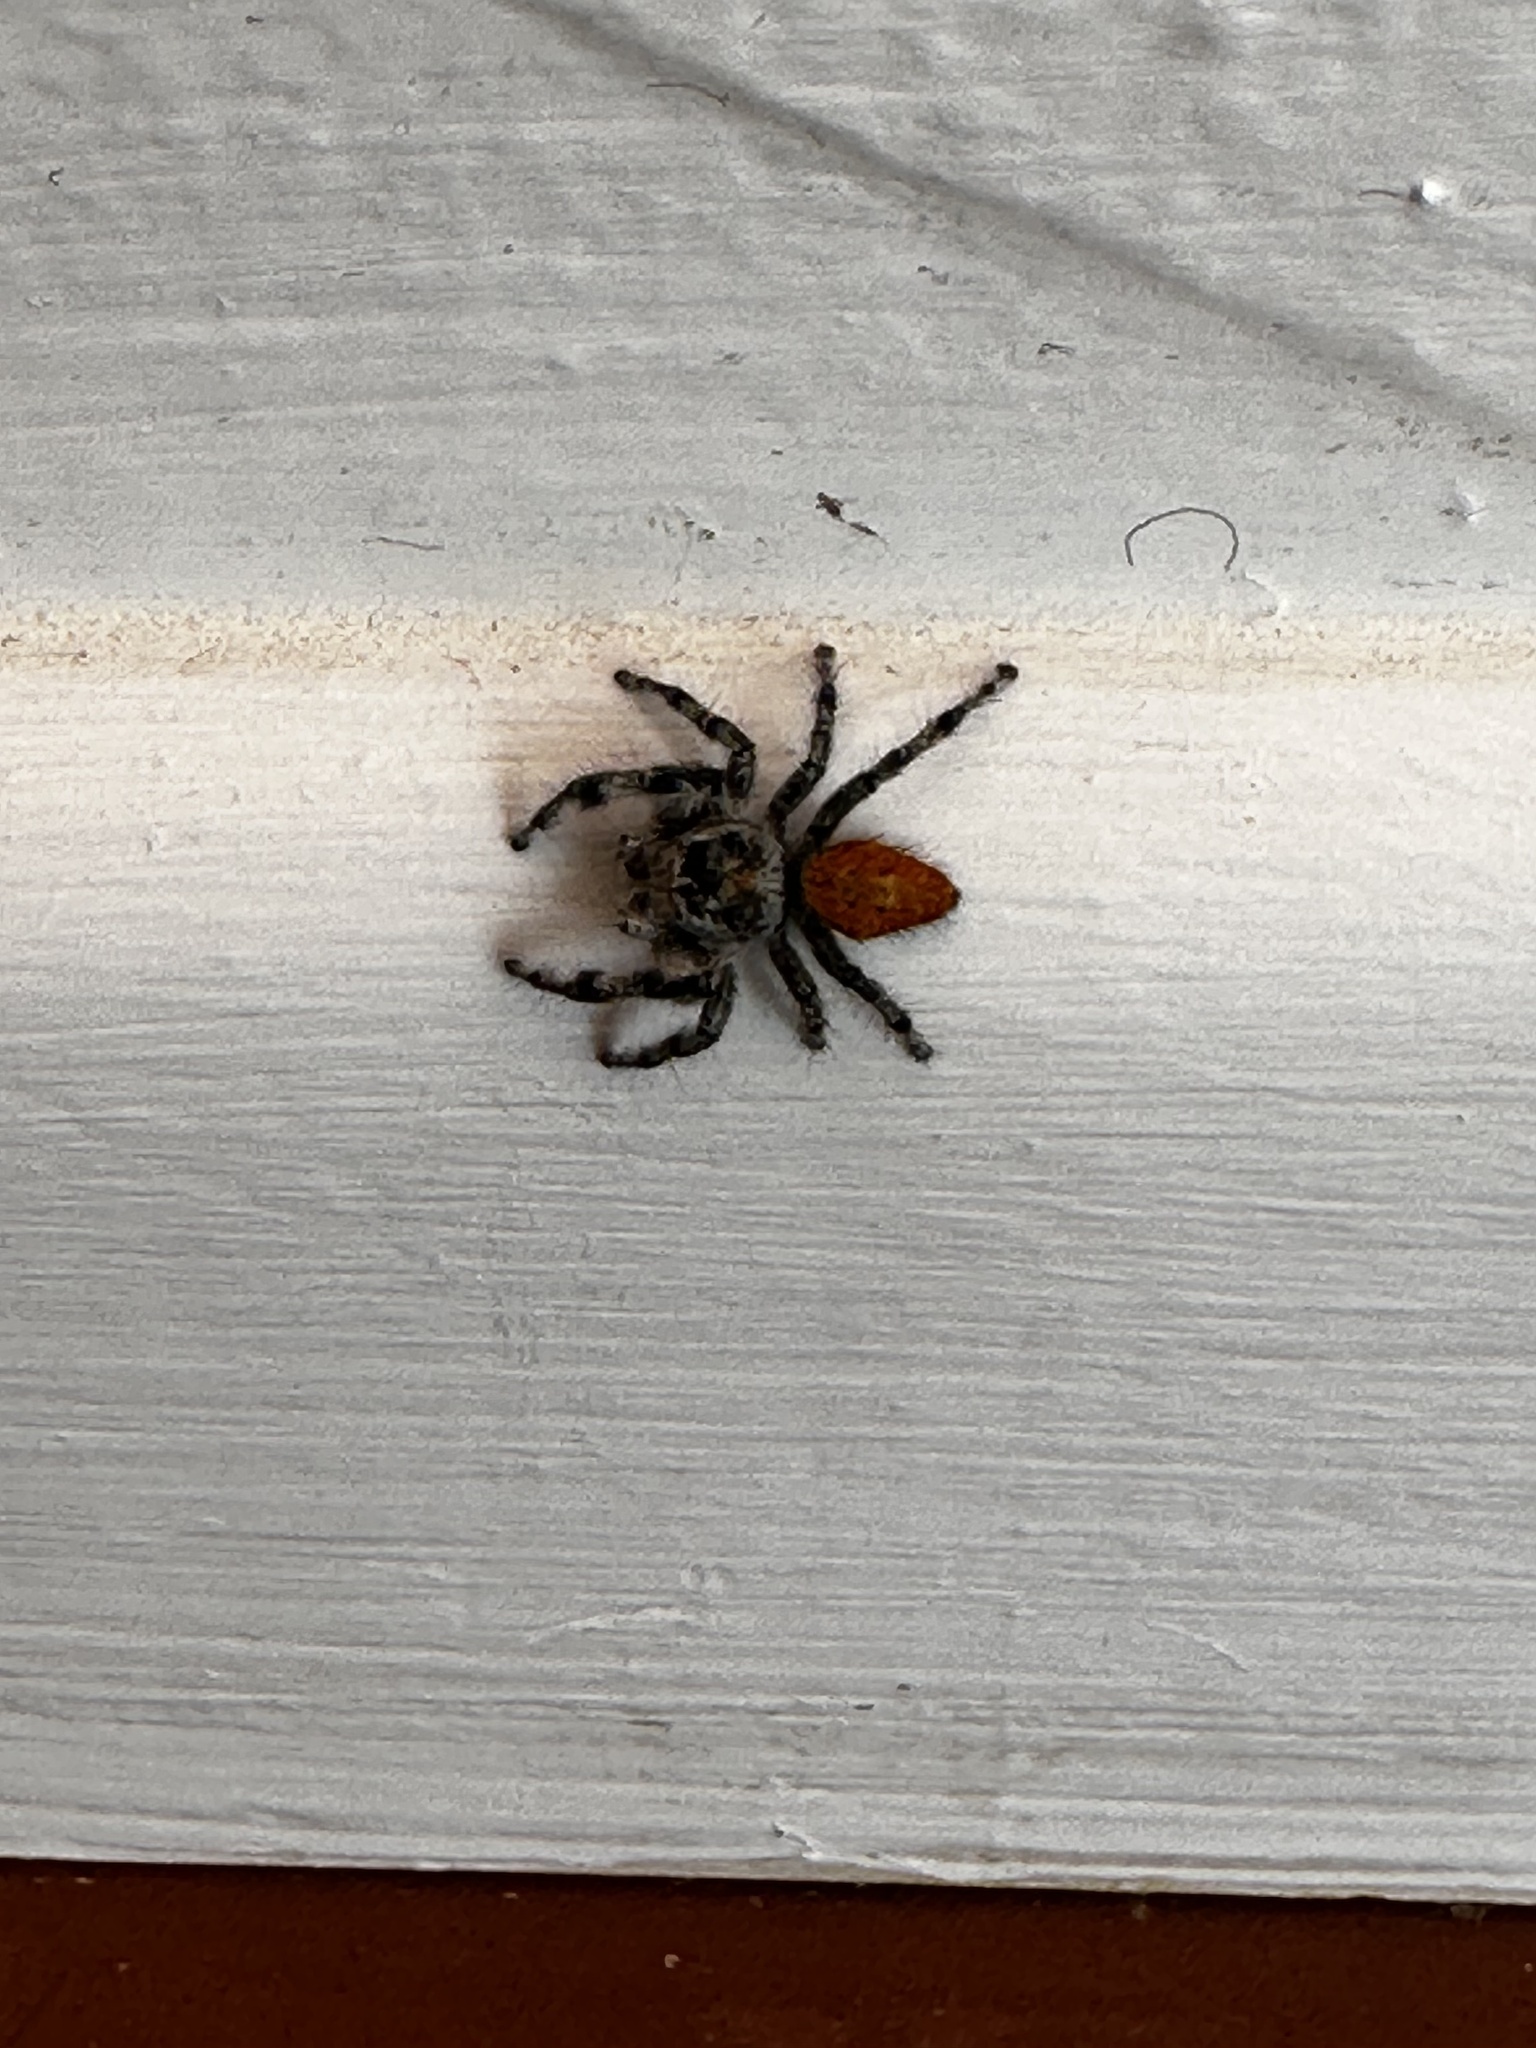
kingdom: Animalia
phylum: Arthropoda
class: Arachnida
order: Araneae
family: Salticidae
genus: Phidippus
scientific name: Phidippus adumbratus
